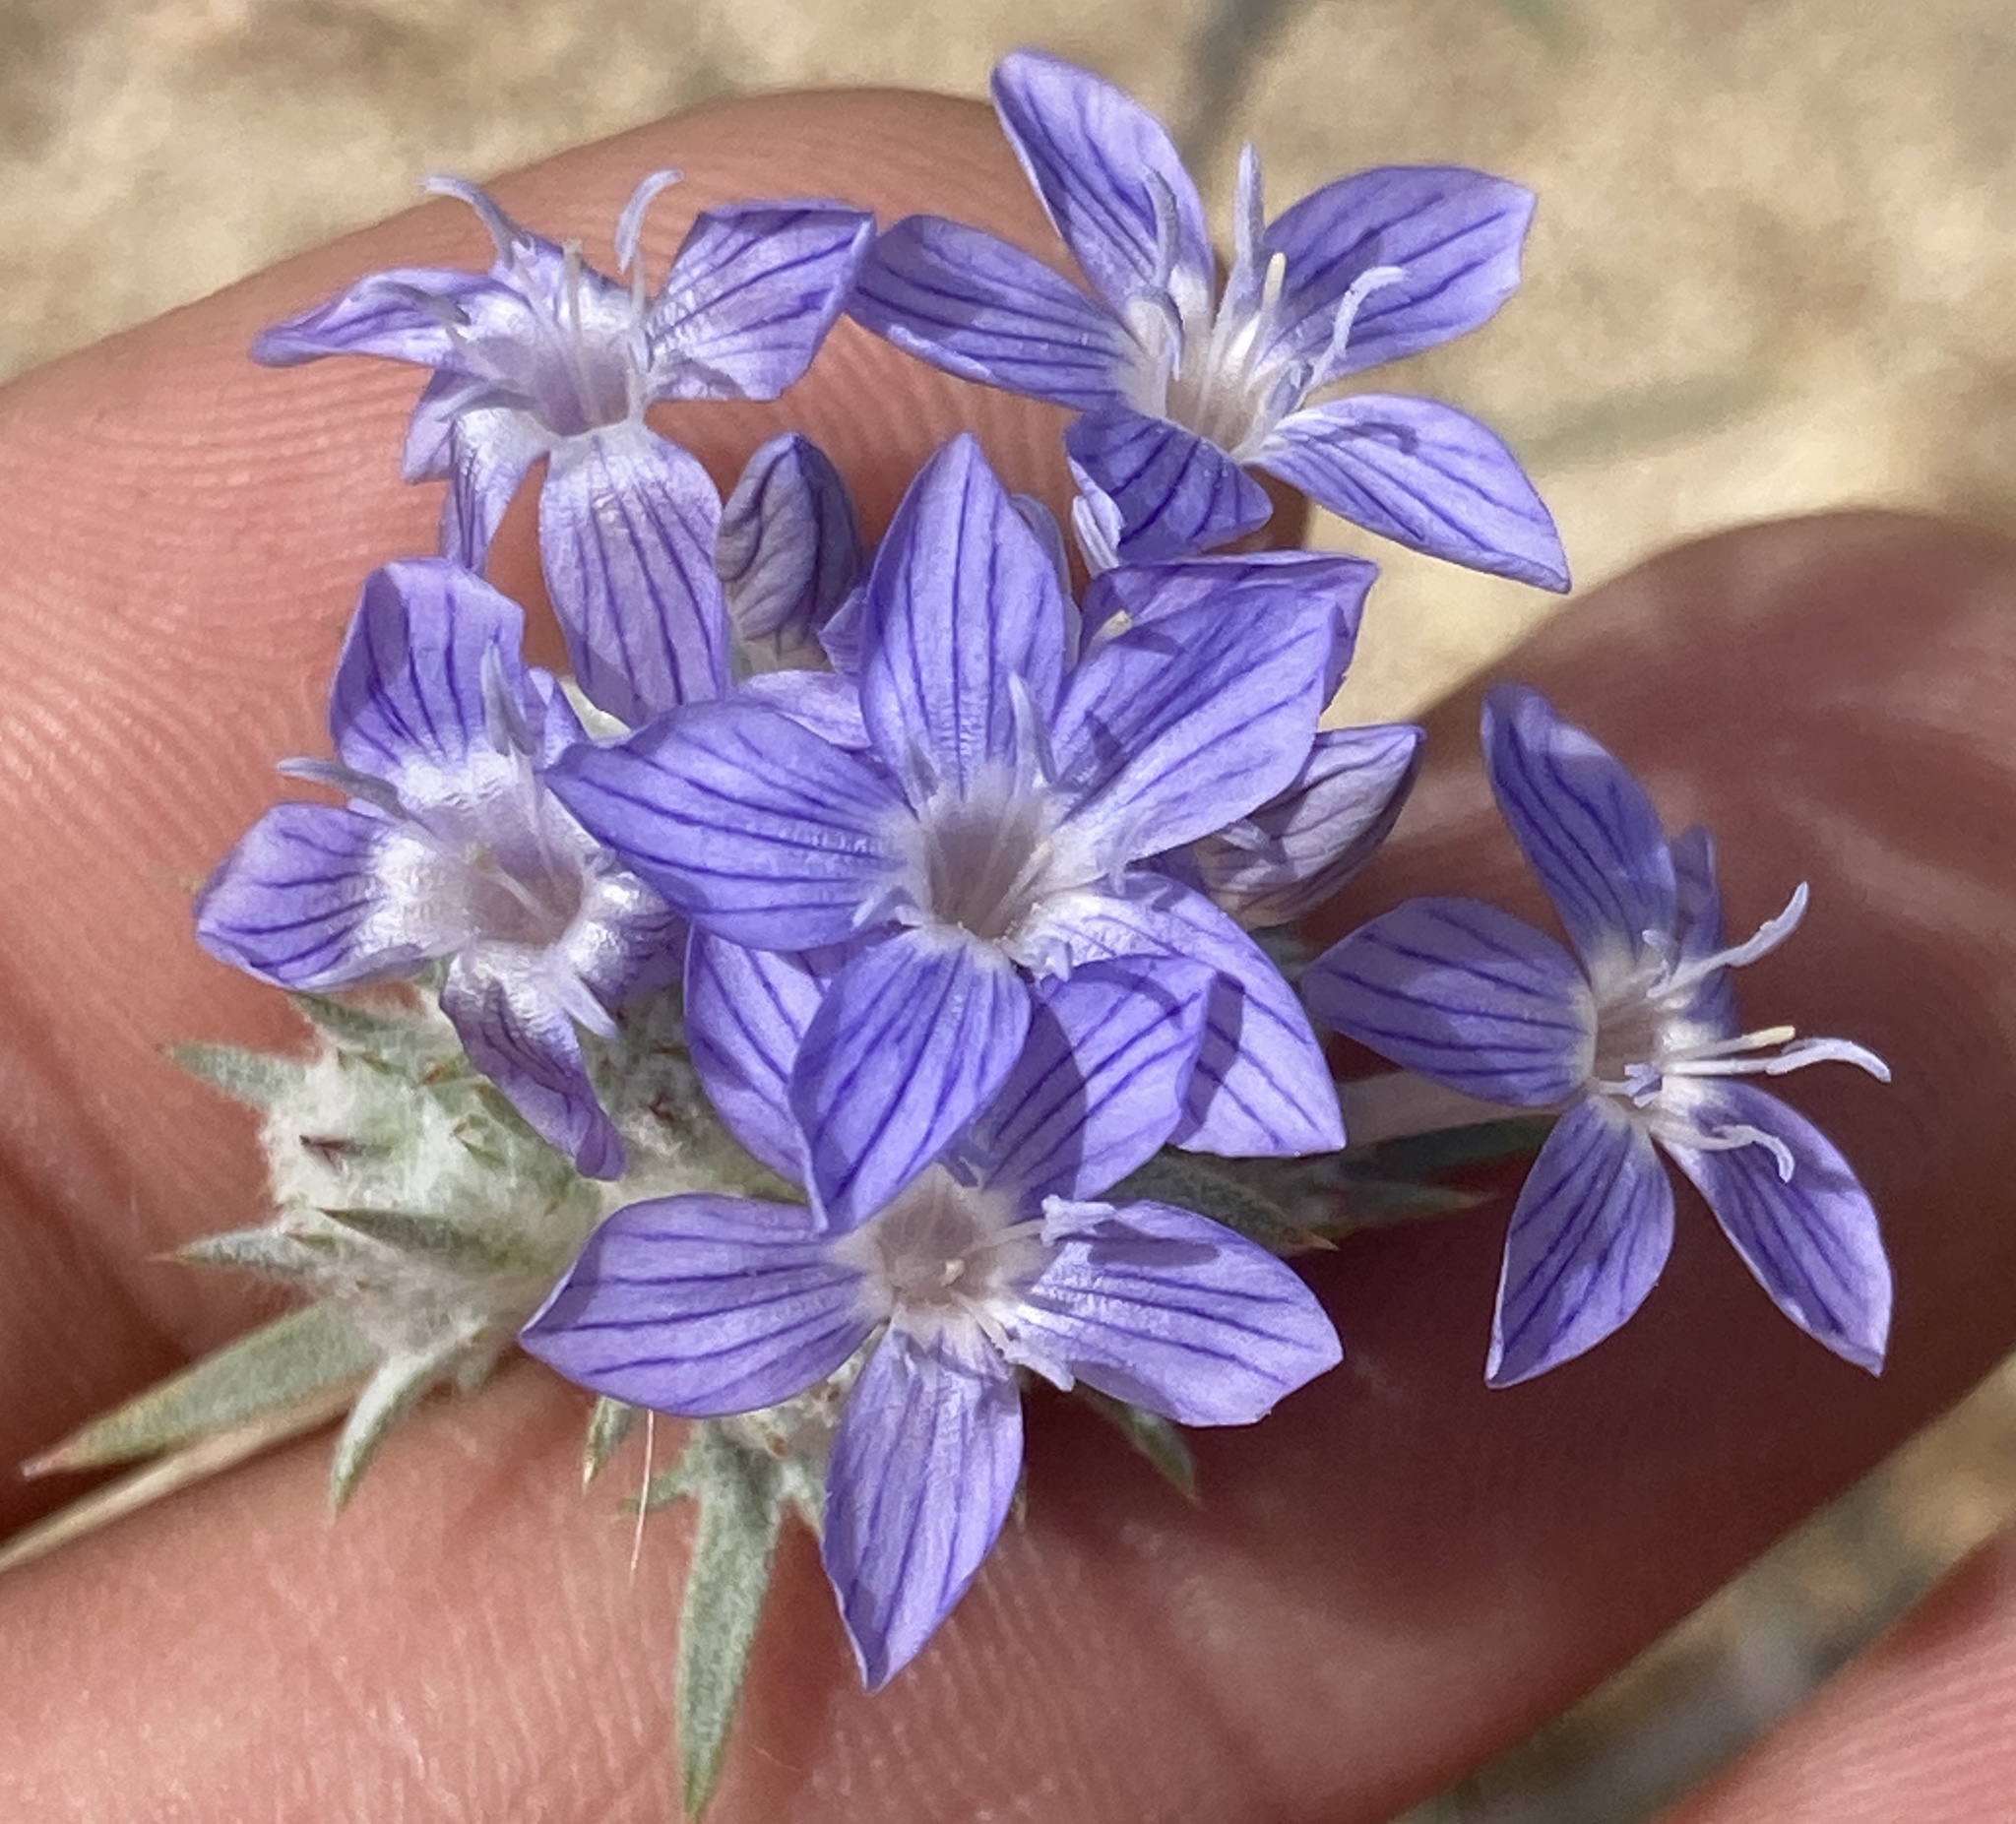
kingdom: Plantae
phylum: Tracheophyta
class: Magnoliopsida
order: Ericales
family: Polemoniaceae
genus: Eriastrum
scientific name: Eriastrum densifolium
